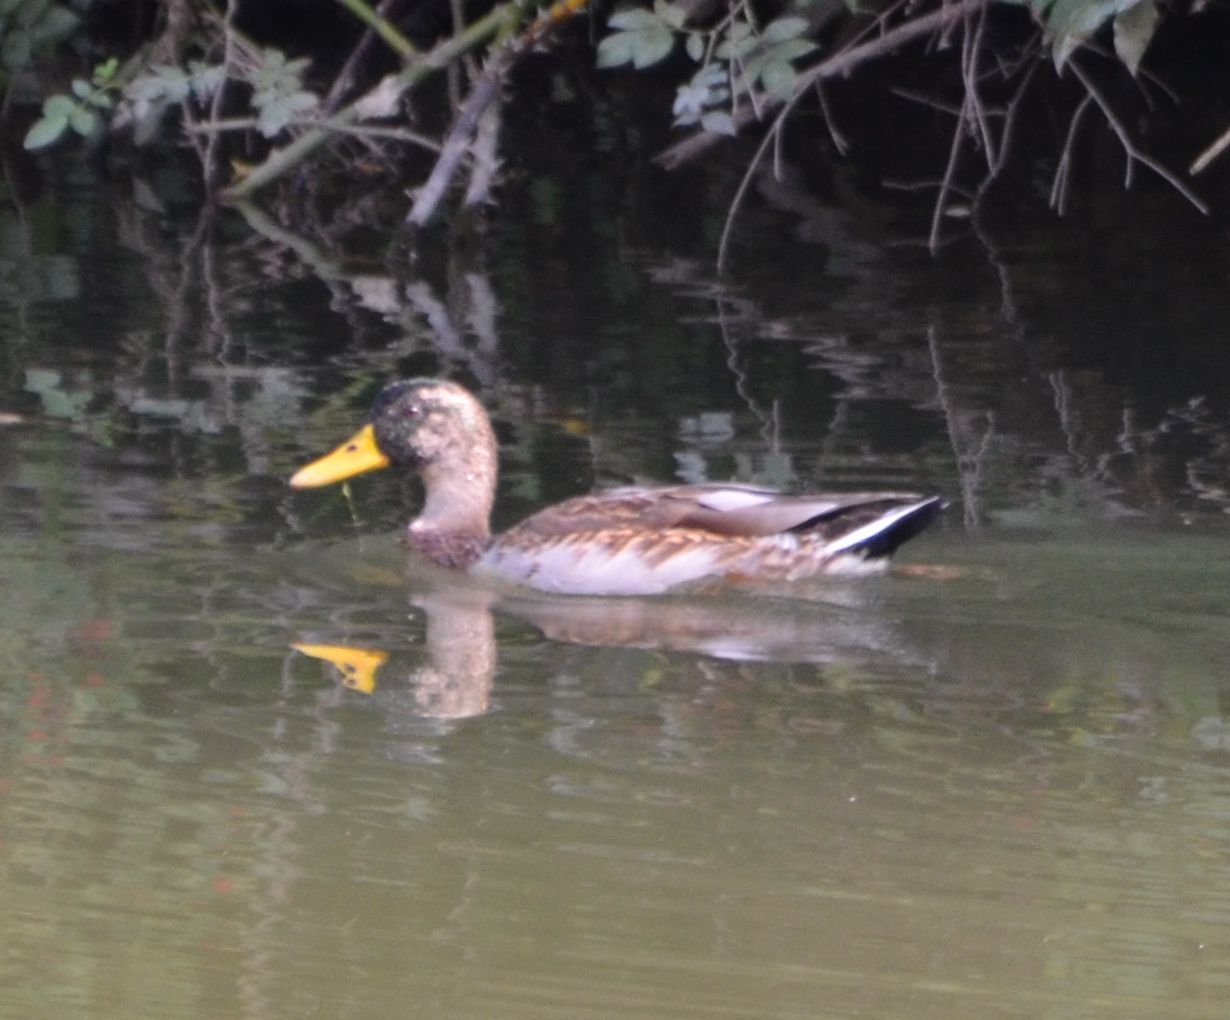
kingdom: Animalia
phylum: Chordata
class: Aves
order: Anseriformes
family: Anatidae
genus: Anas
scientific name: Anas platyrhynchos
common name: Mallard
